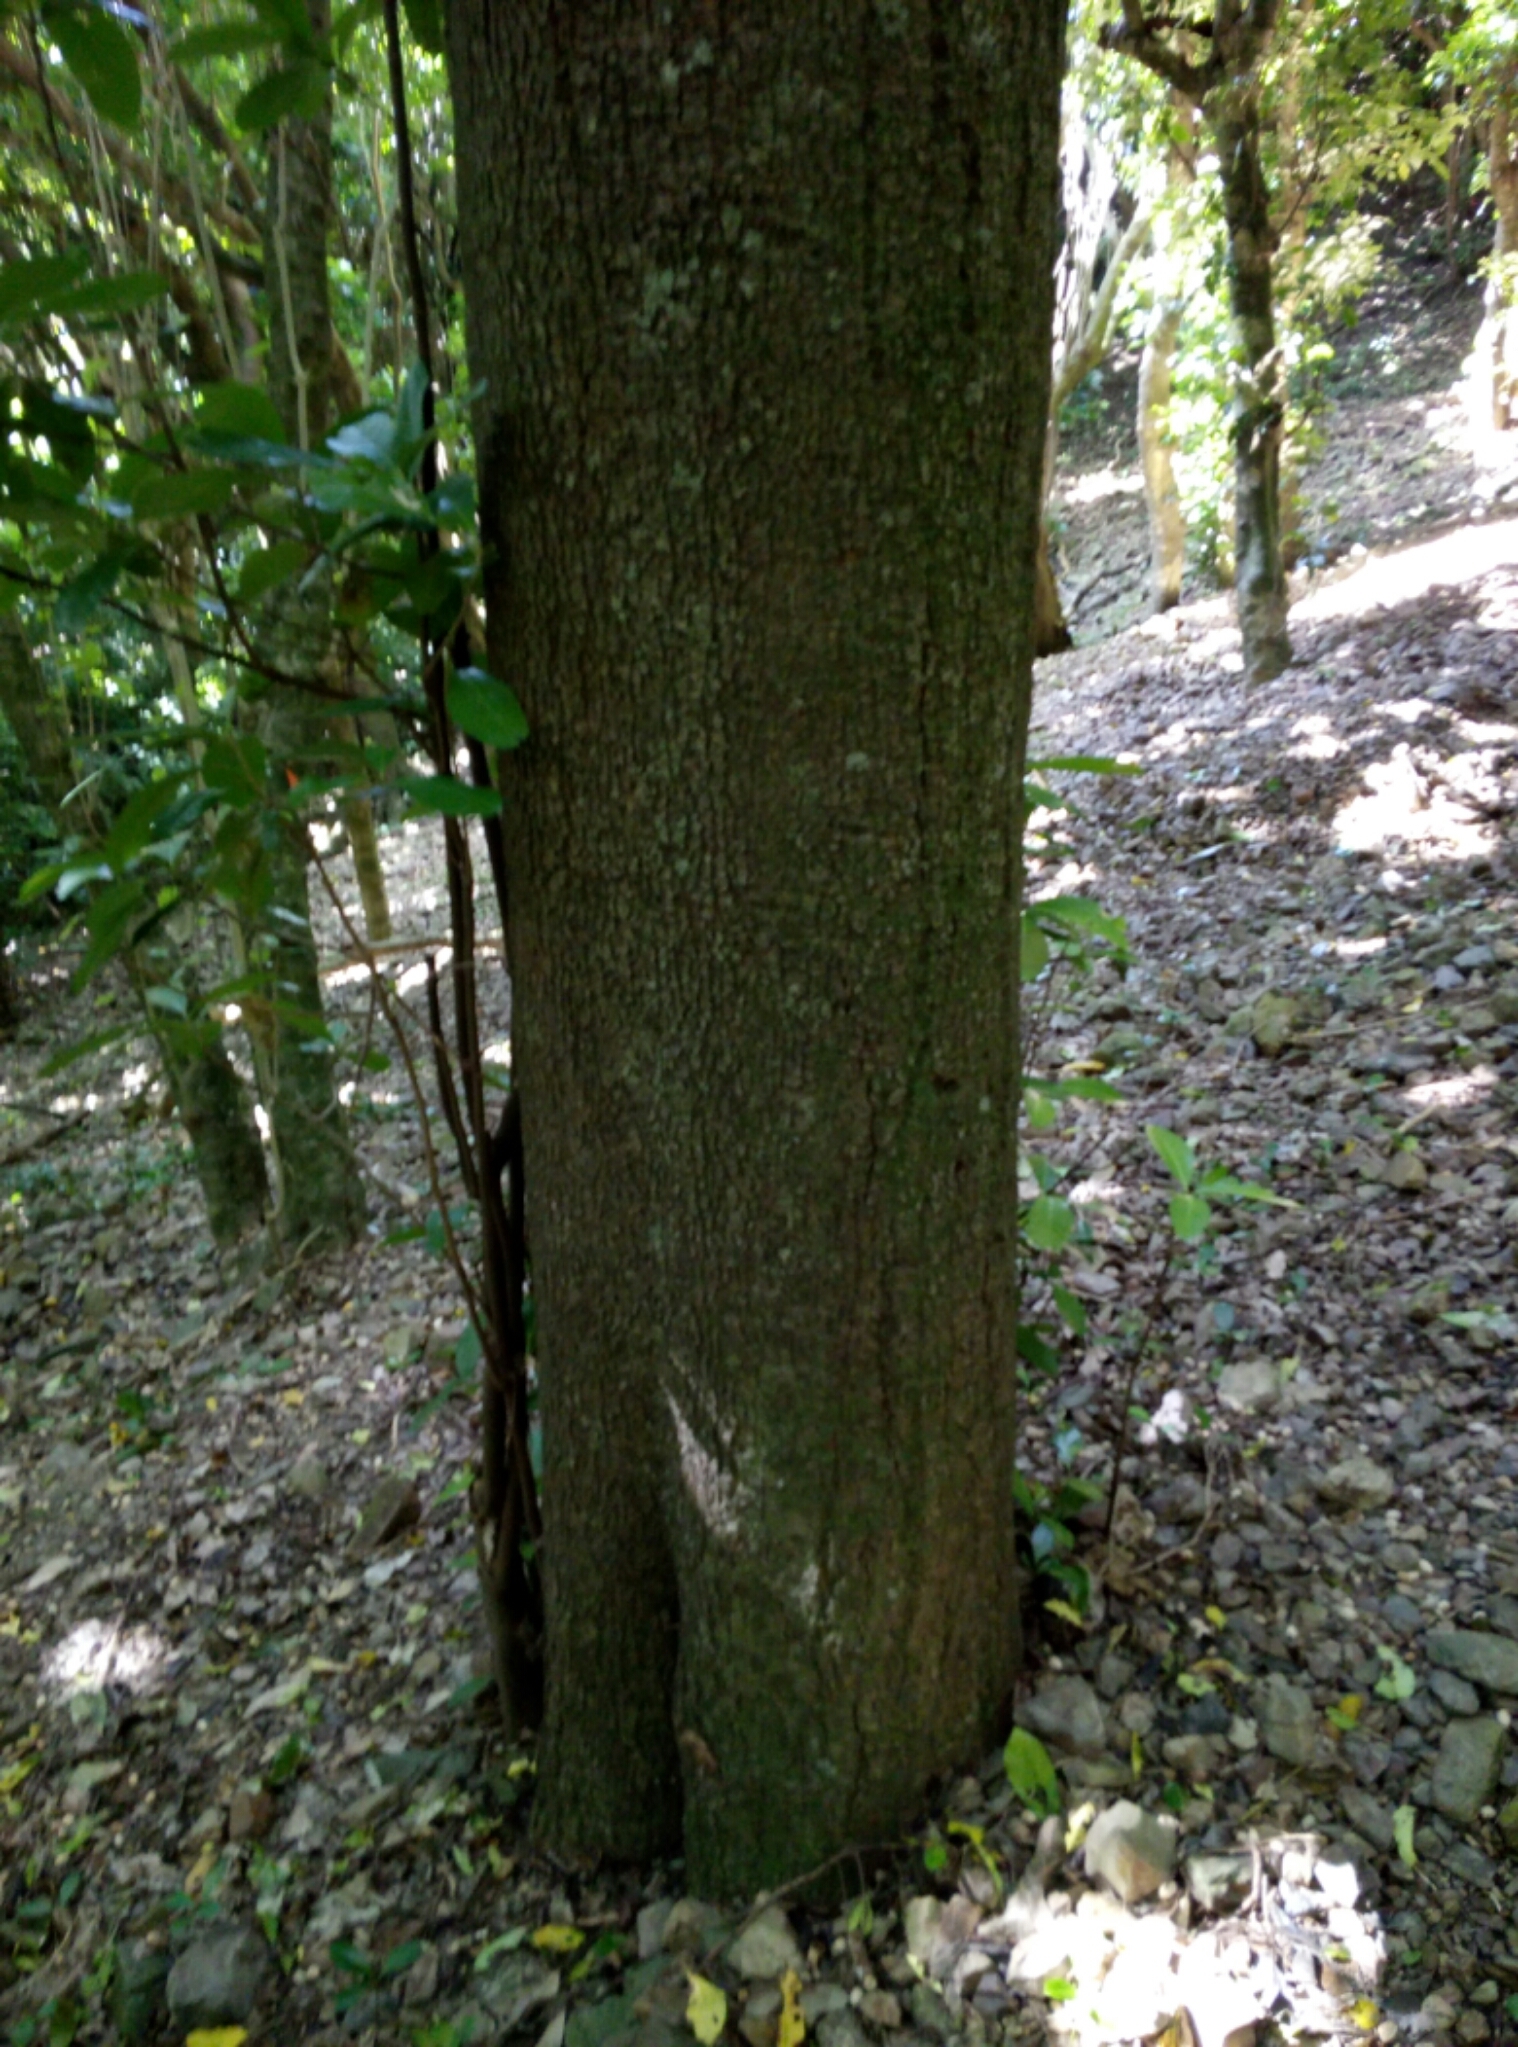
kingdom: Plantae
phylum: Tracheophyta
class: Magnoliopsida
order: Cucurbitales
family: Corynocarpaceae
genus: Corynocarpus
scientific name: Corynocarpus laevigatus
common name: New zealand laurel
